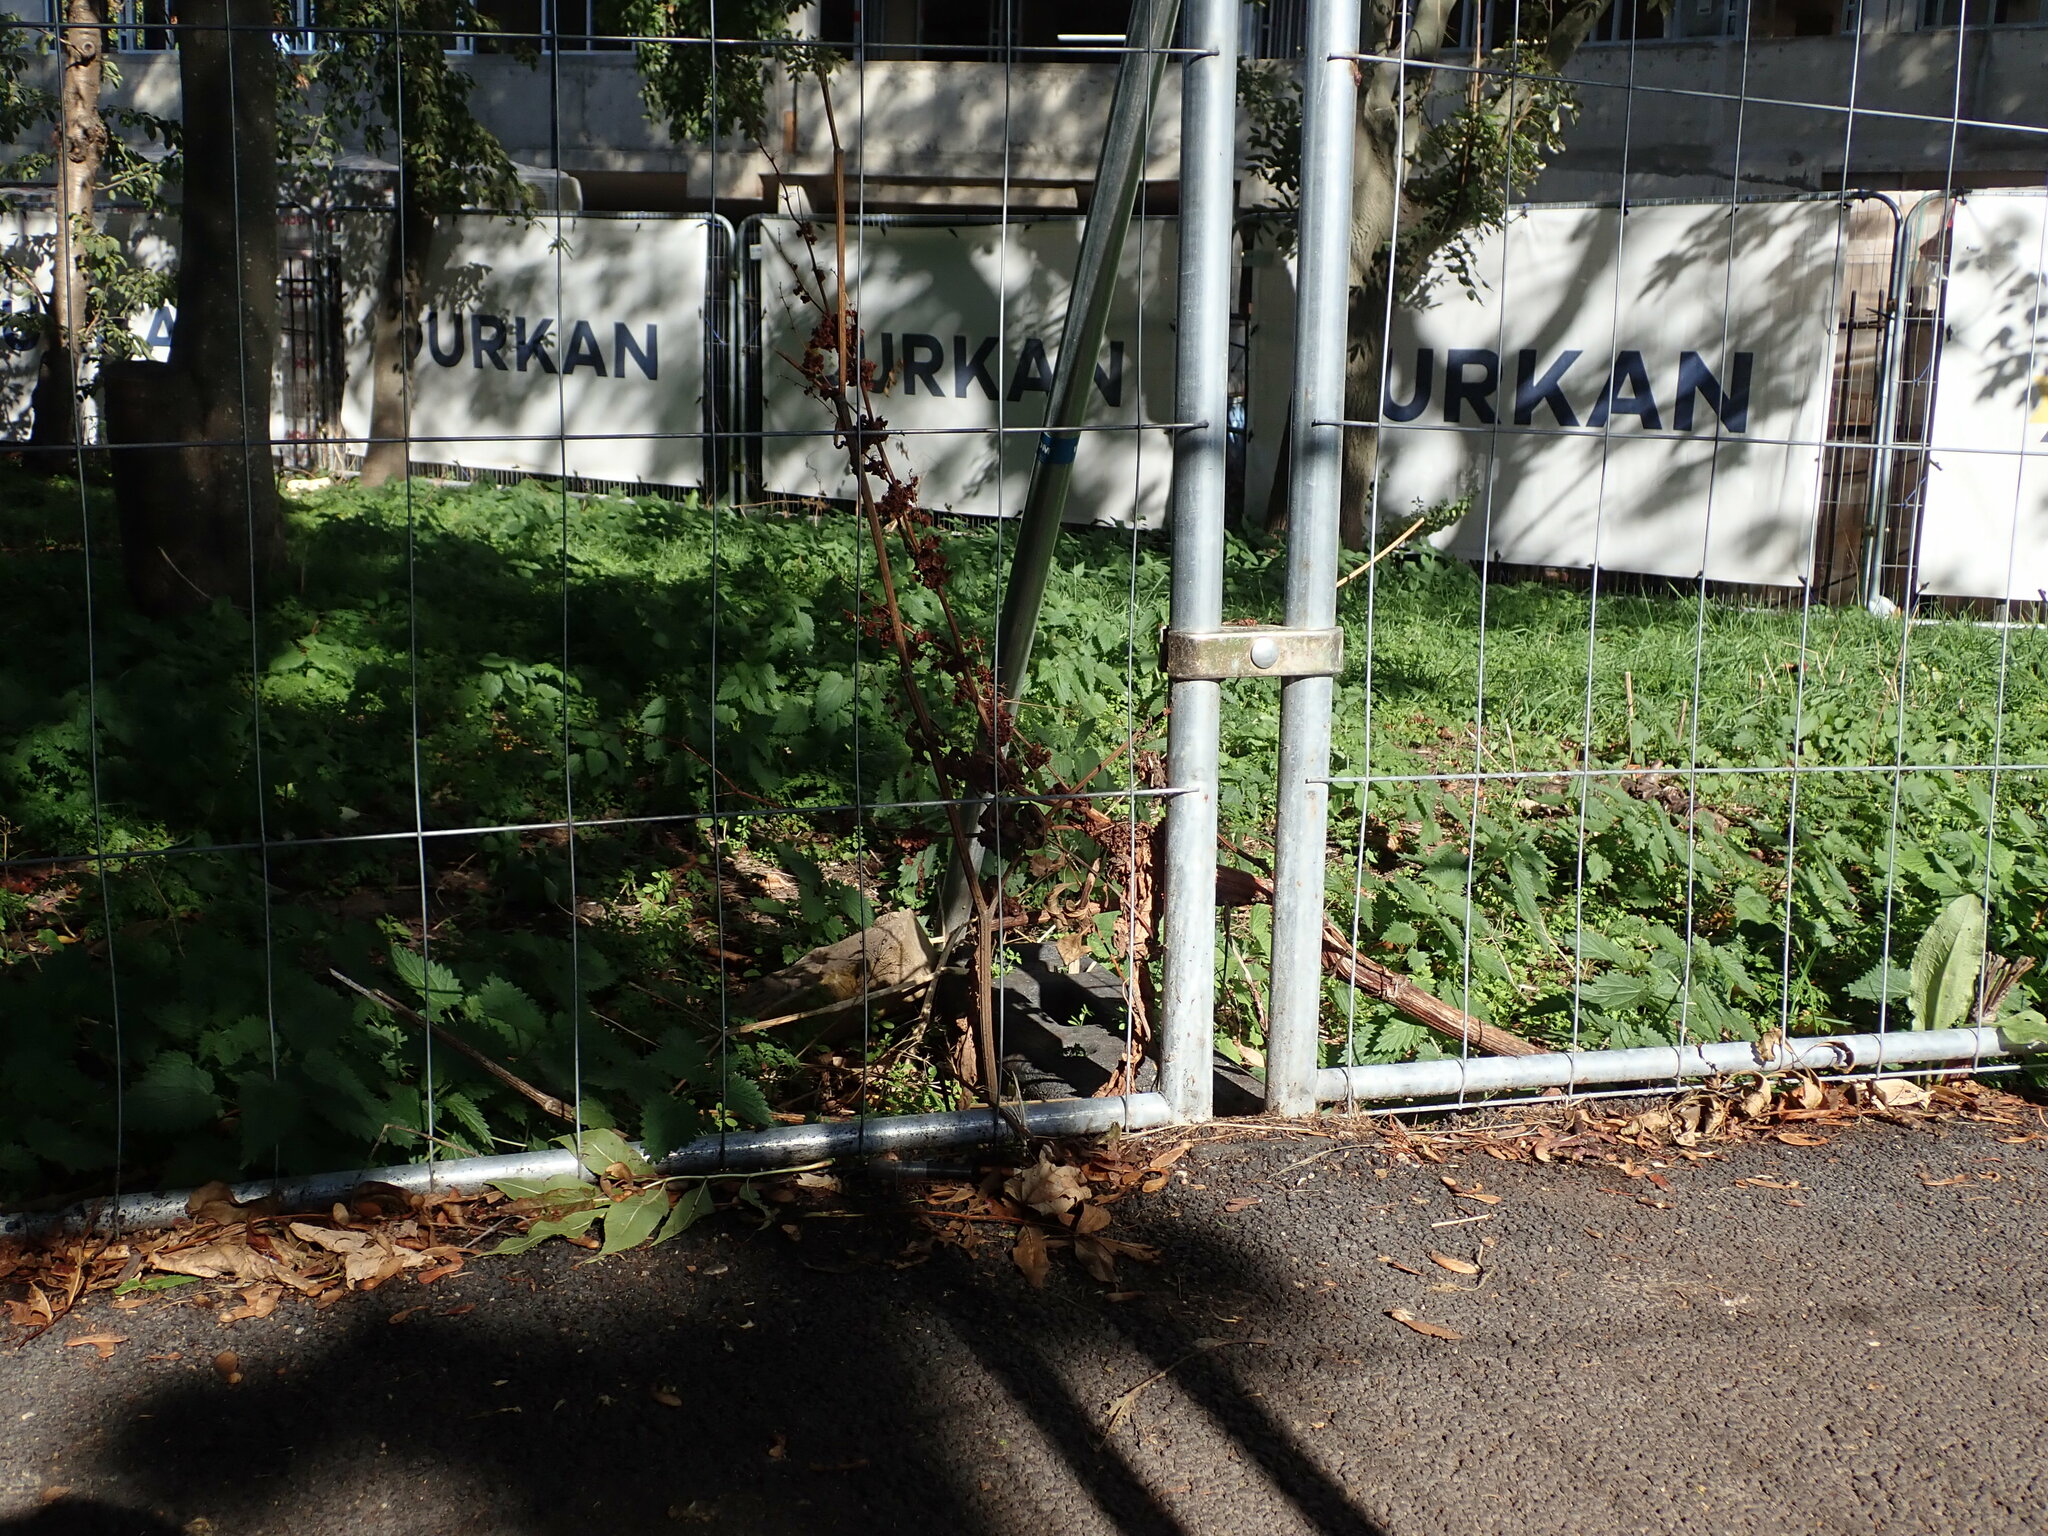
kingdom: Plantae
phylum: Tracheophyta
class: Magnoliopsida
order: Caryophyllales
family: Polygonaceae
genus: Rumex
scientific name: Rumex cristatus
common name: Greek dock
